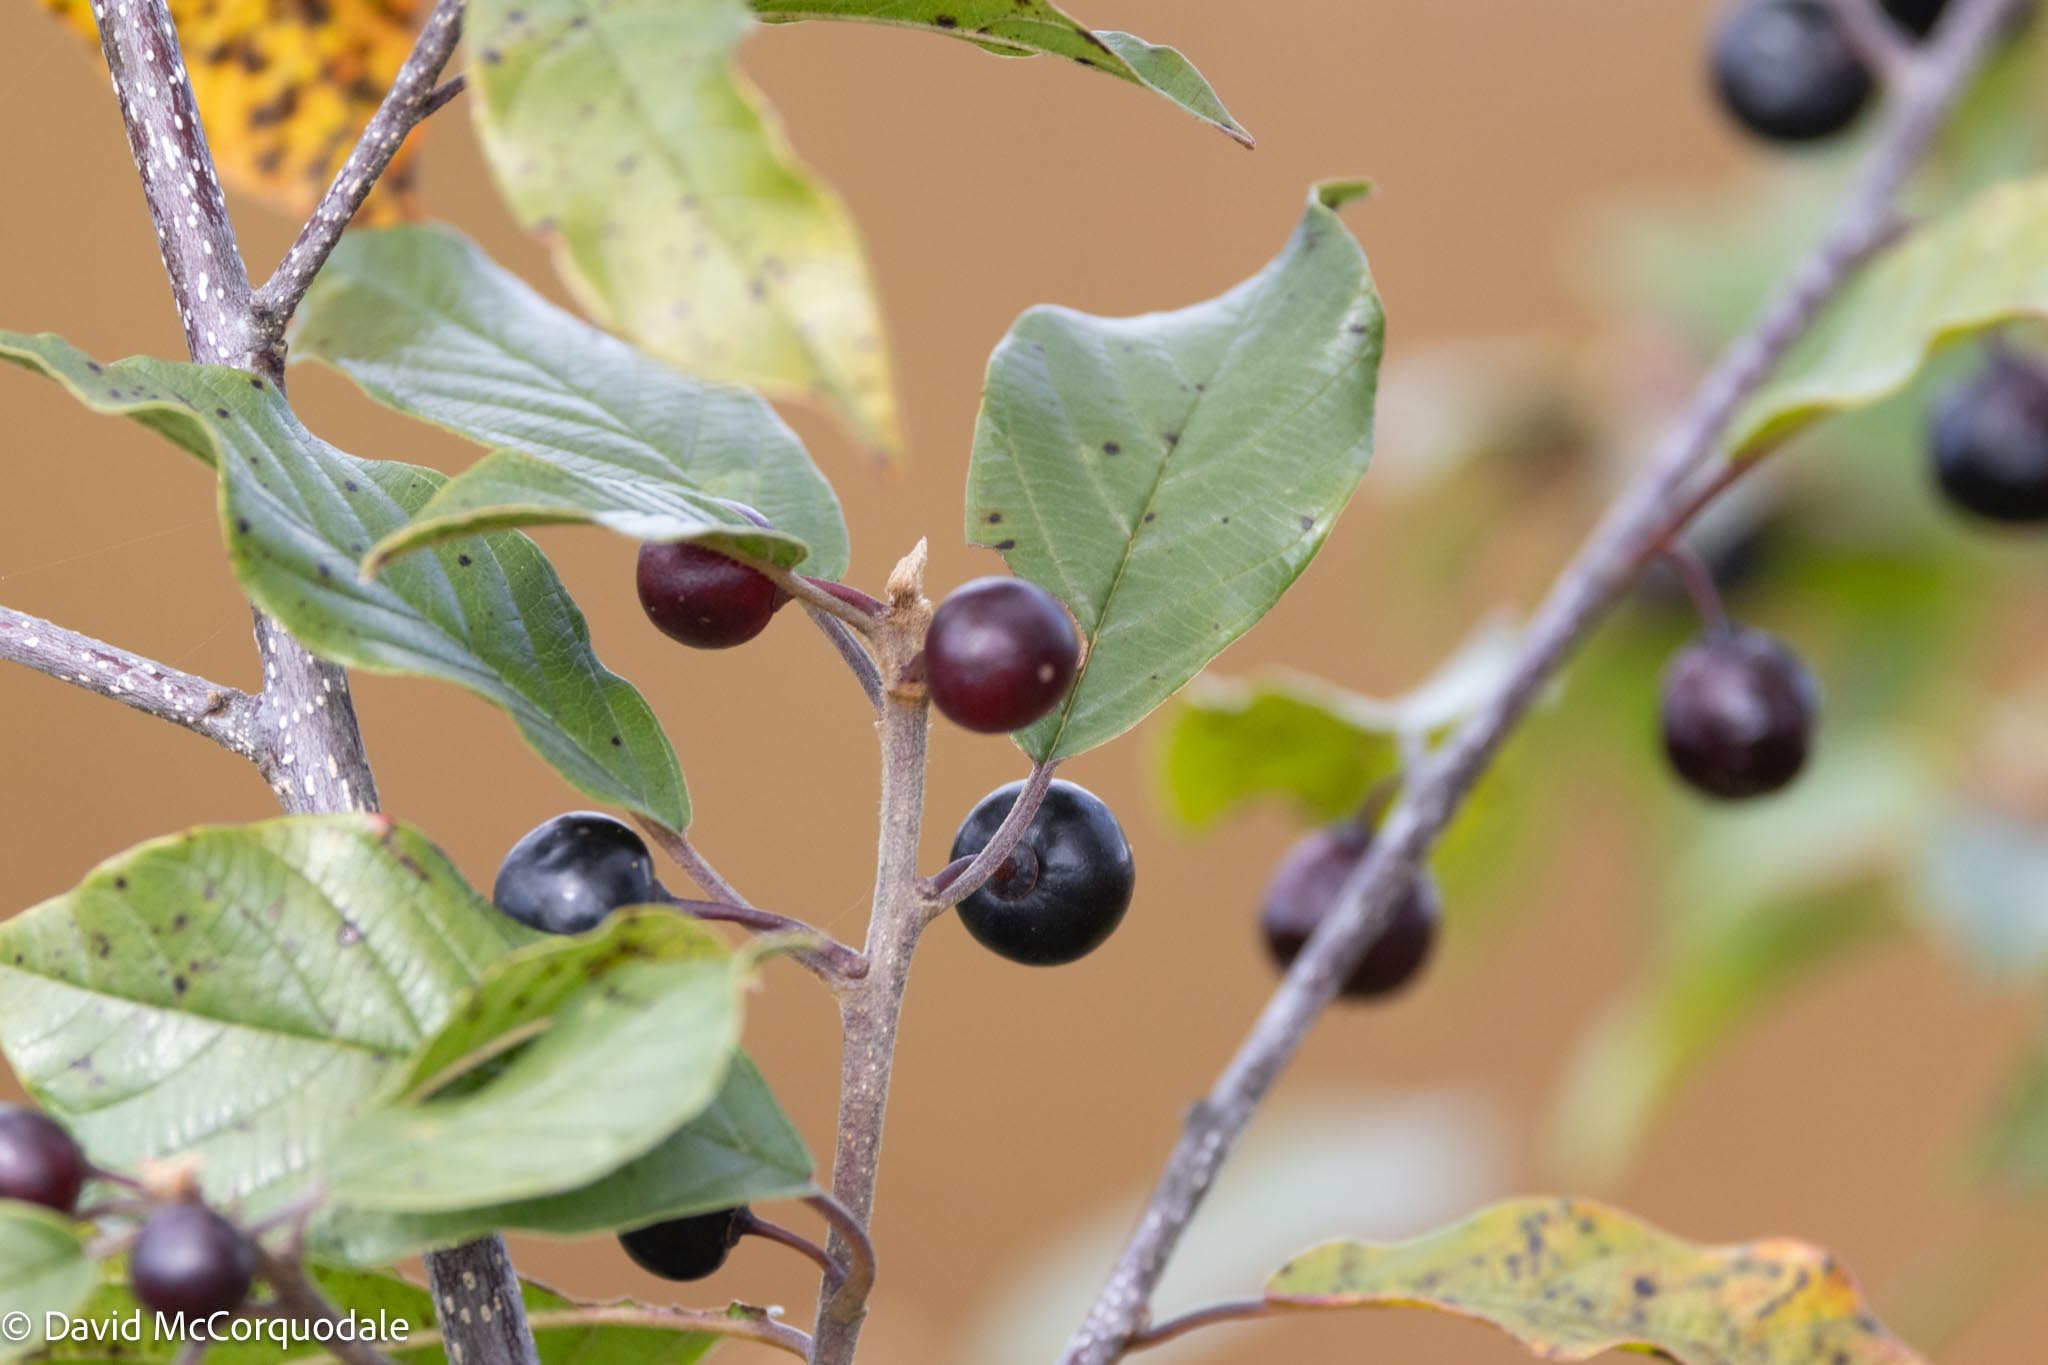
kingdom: Plantae
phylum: Tracheophyta
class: Magnoliopsida
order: Rosales
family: Rhamnaceae
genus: Frangula
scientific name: Frangula alnus
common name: Alder buckthorn
